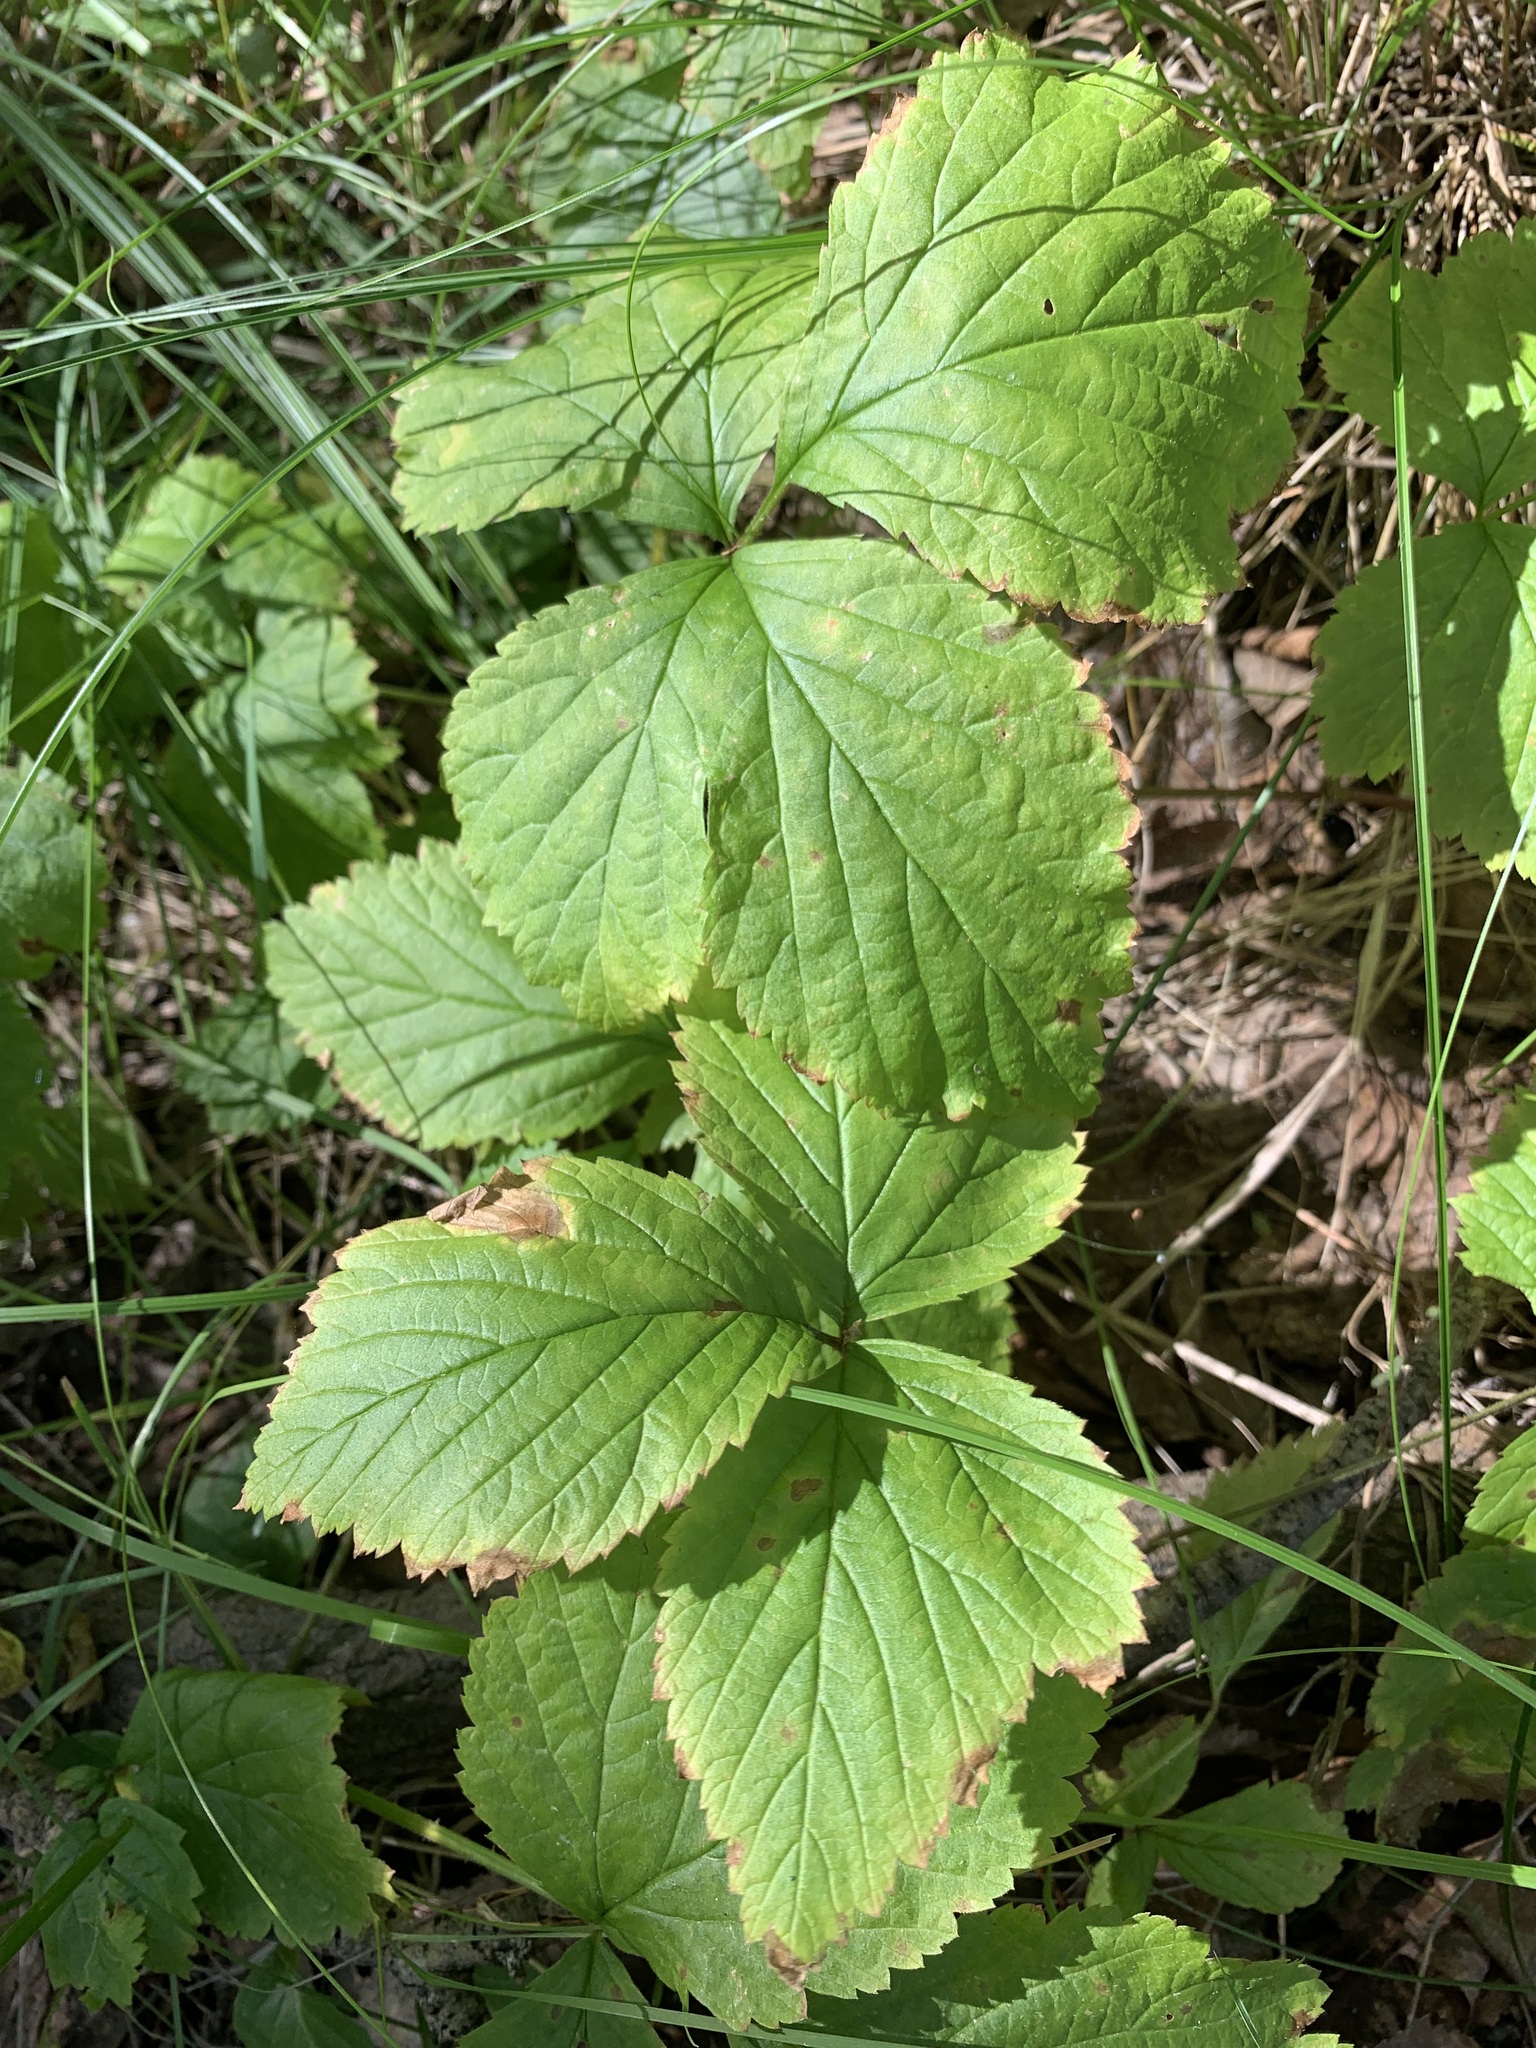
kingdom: Plantae
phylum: Tracheophyta
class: Magnoliopsida
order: Rosales
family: Rosaceae
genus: Rubus
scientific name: Rubus saxatilis
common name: Stone bramble
